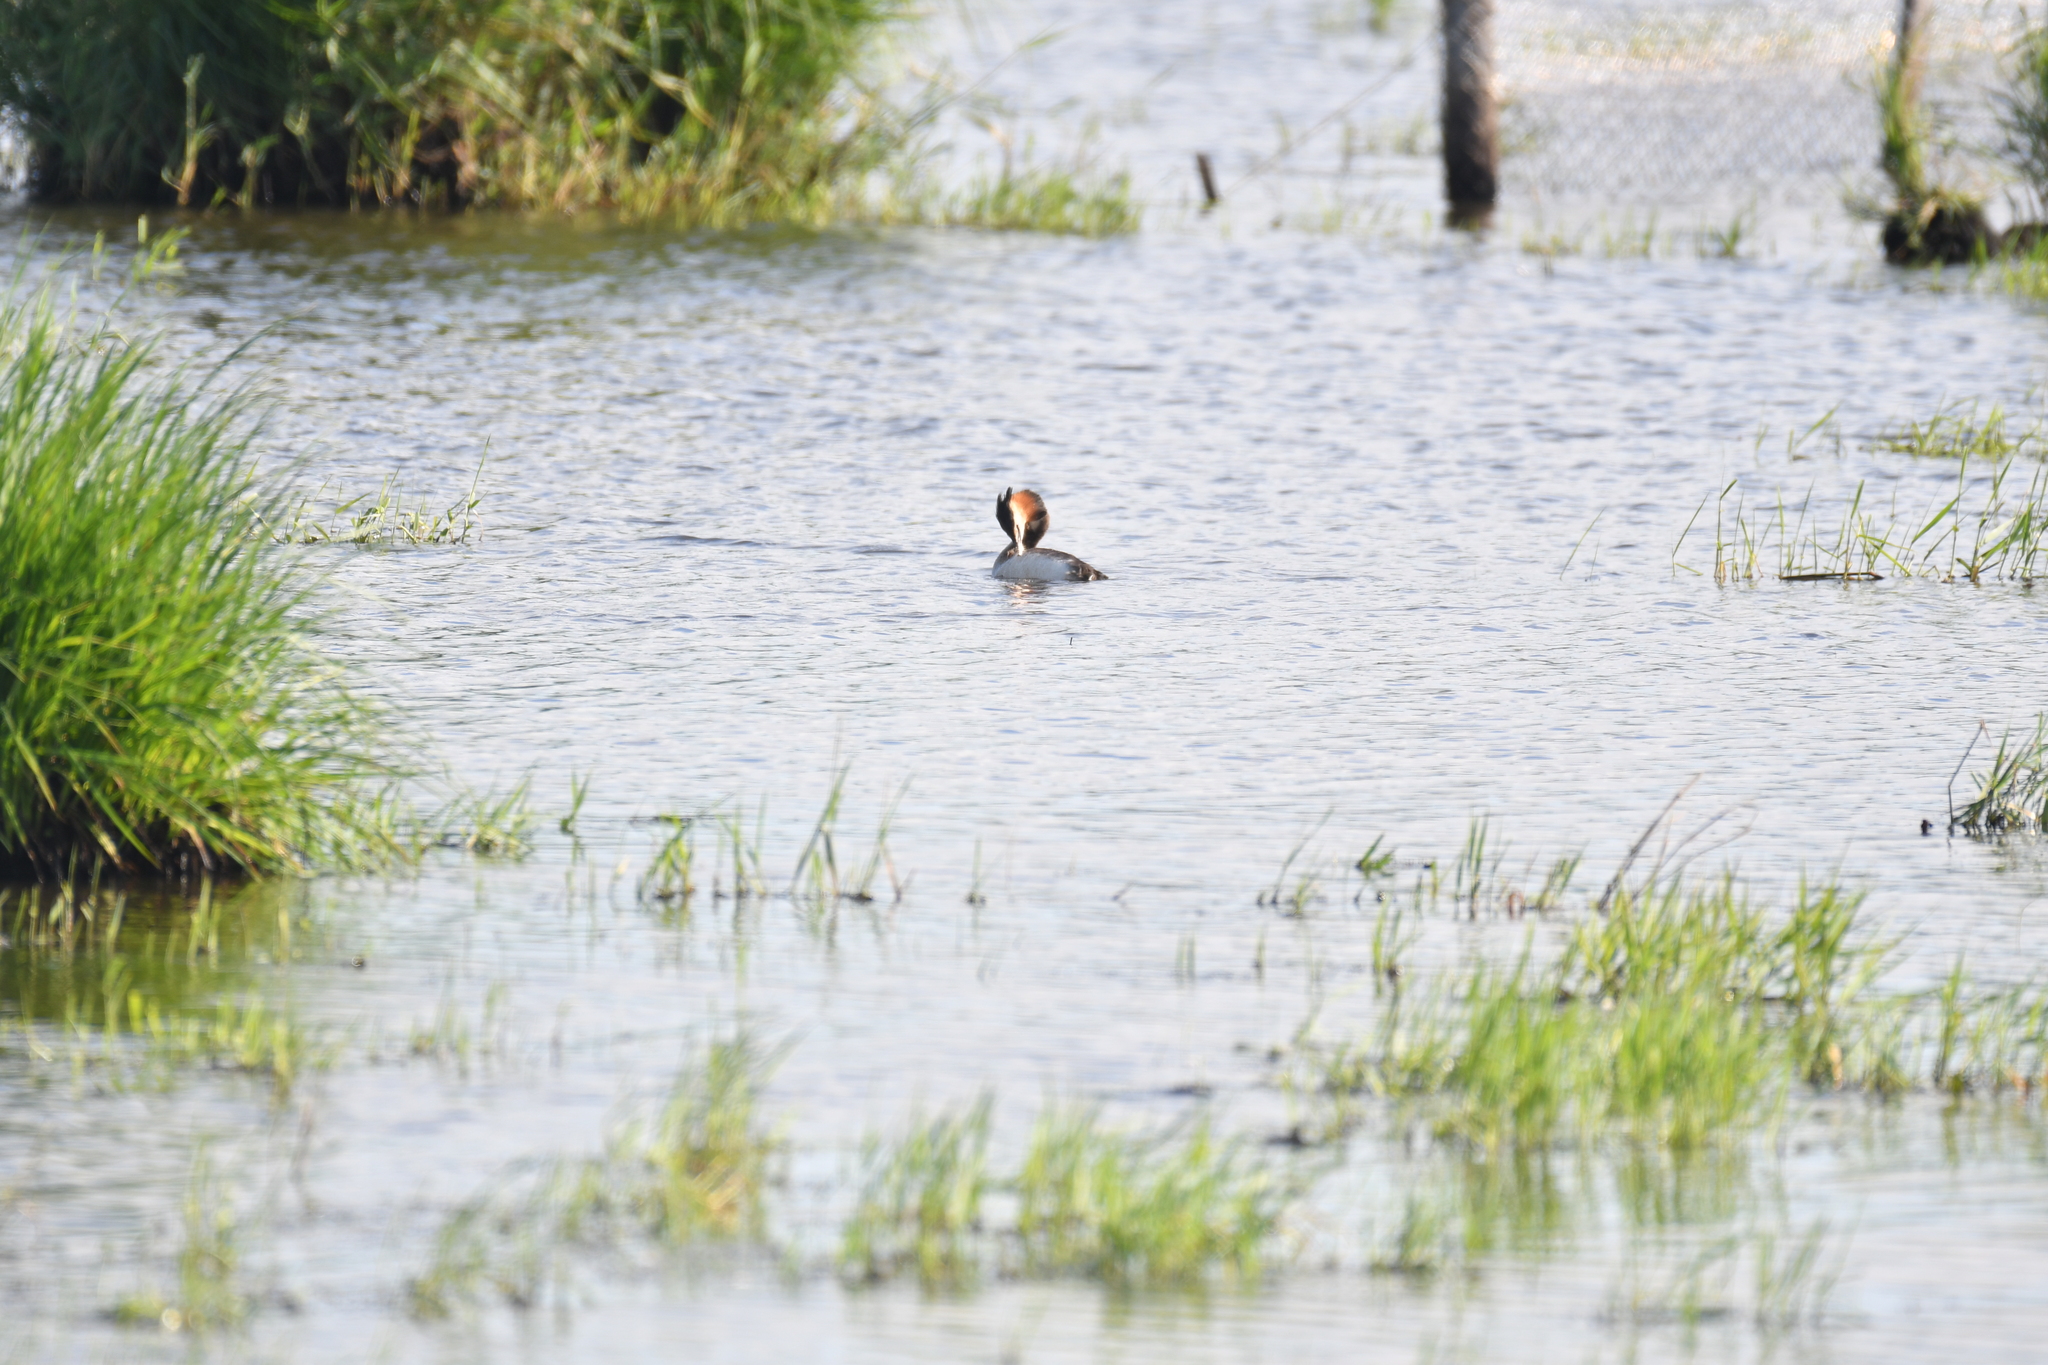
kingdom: Animalia
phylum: Chordata
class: Aves
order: Podicipediformes
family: Podicipedidae
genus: Podiceps
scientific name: Podiceps cristatus
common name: Great crested grebe
